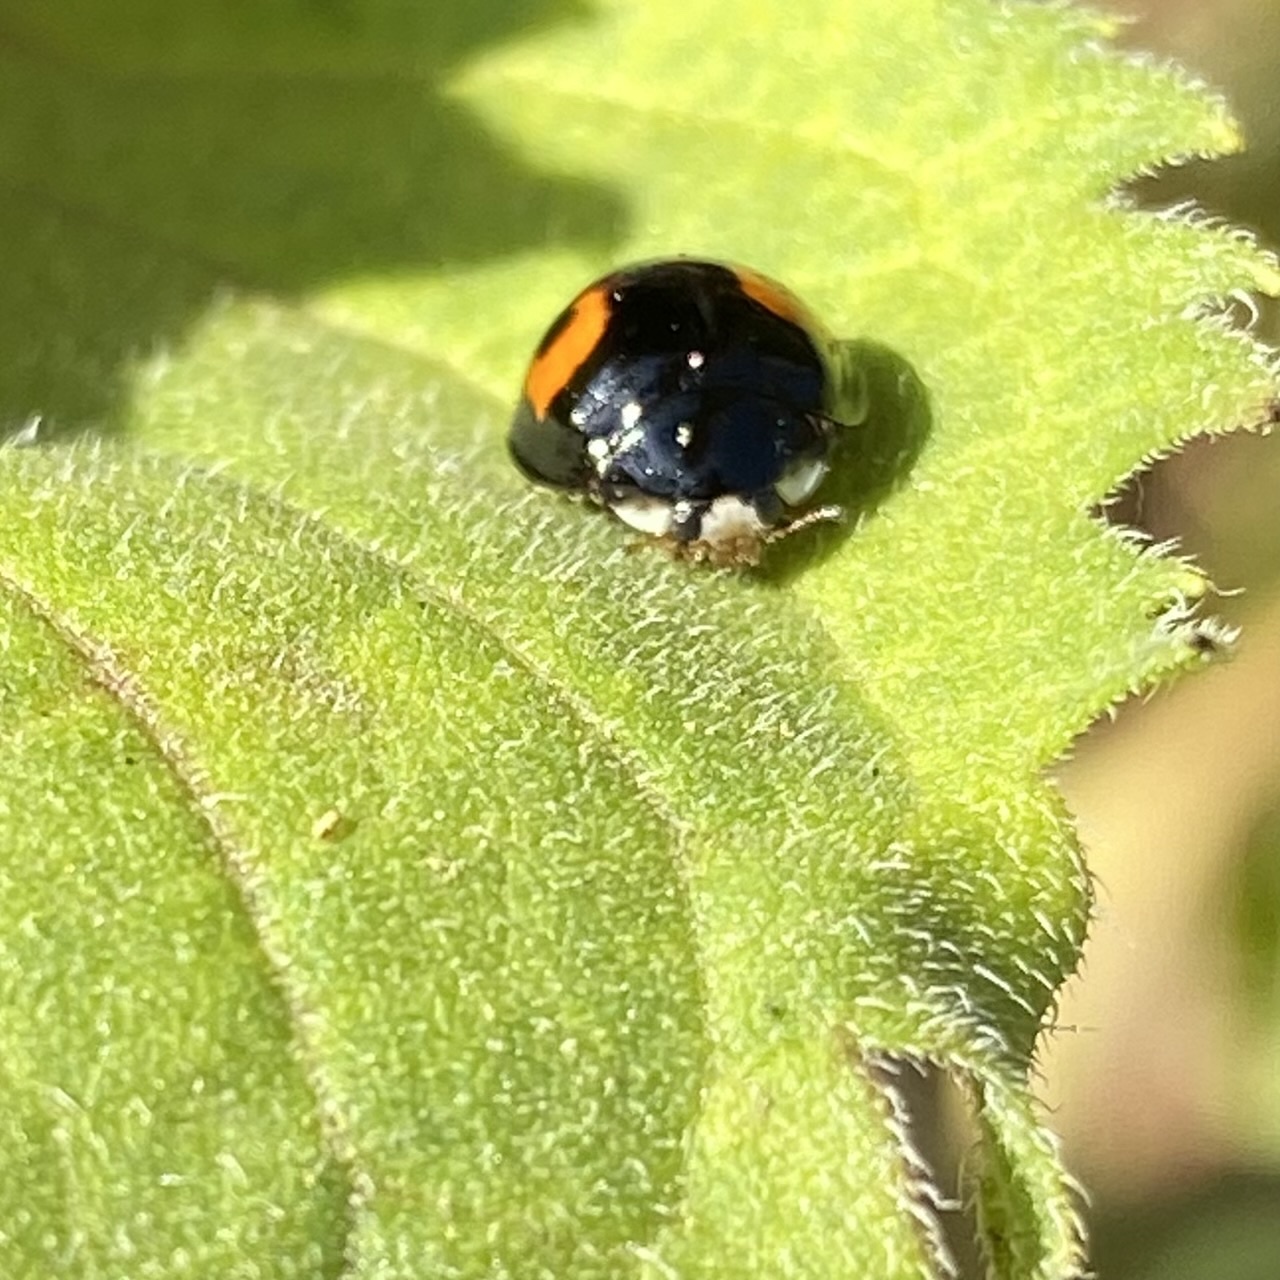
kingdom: Animalia
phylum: Arthropoda
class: Insecta
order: Coleoptera
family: Coccinellidae
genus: Olla
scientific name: Olla v-nigrum
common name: Ashy gray lady beetle
